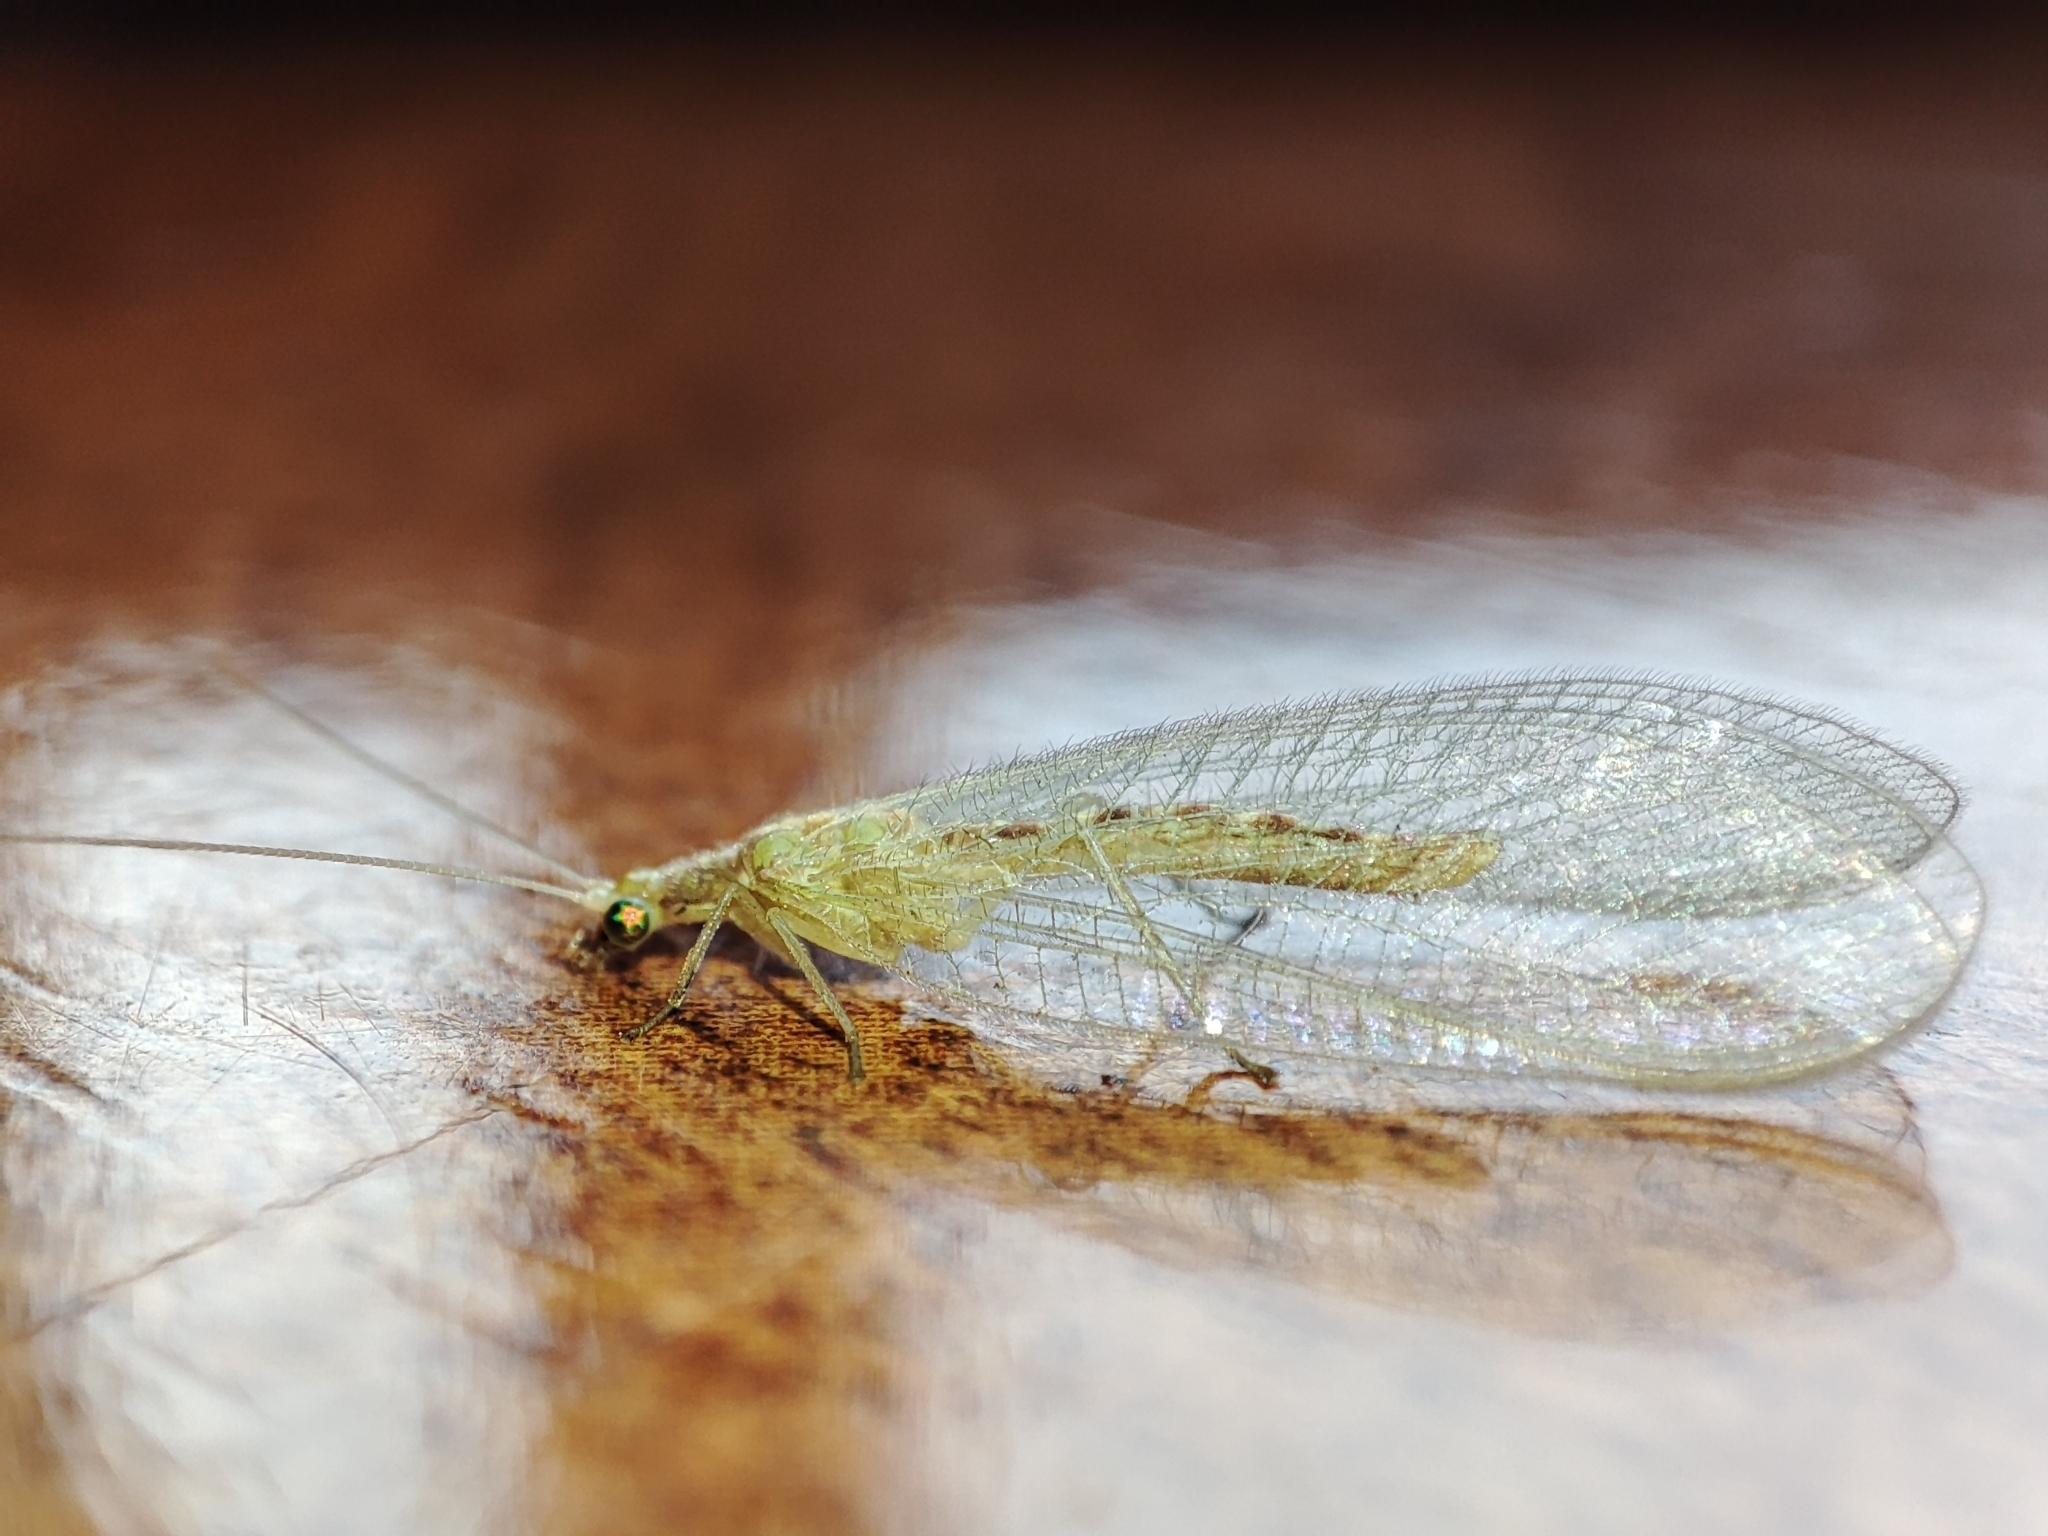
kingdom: Animalia
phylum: Arthropoda
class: Insecta
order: Neuroptera
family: Chrysopidae
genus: Chrysoperla
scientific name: Chrysoperla
